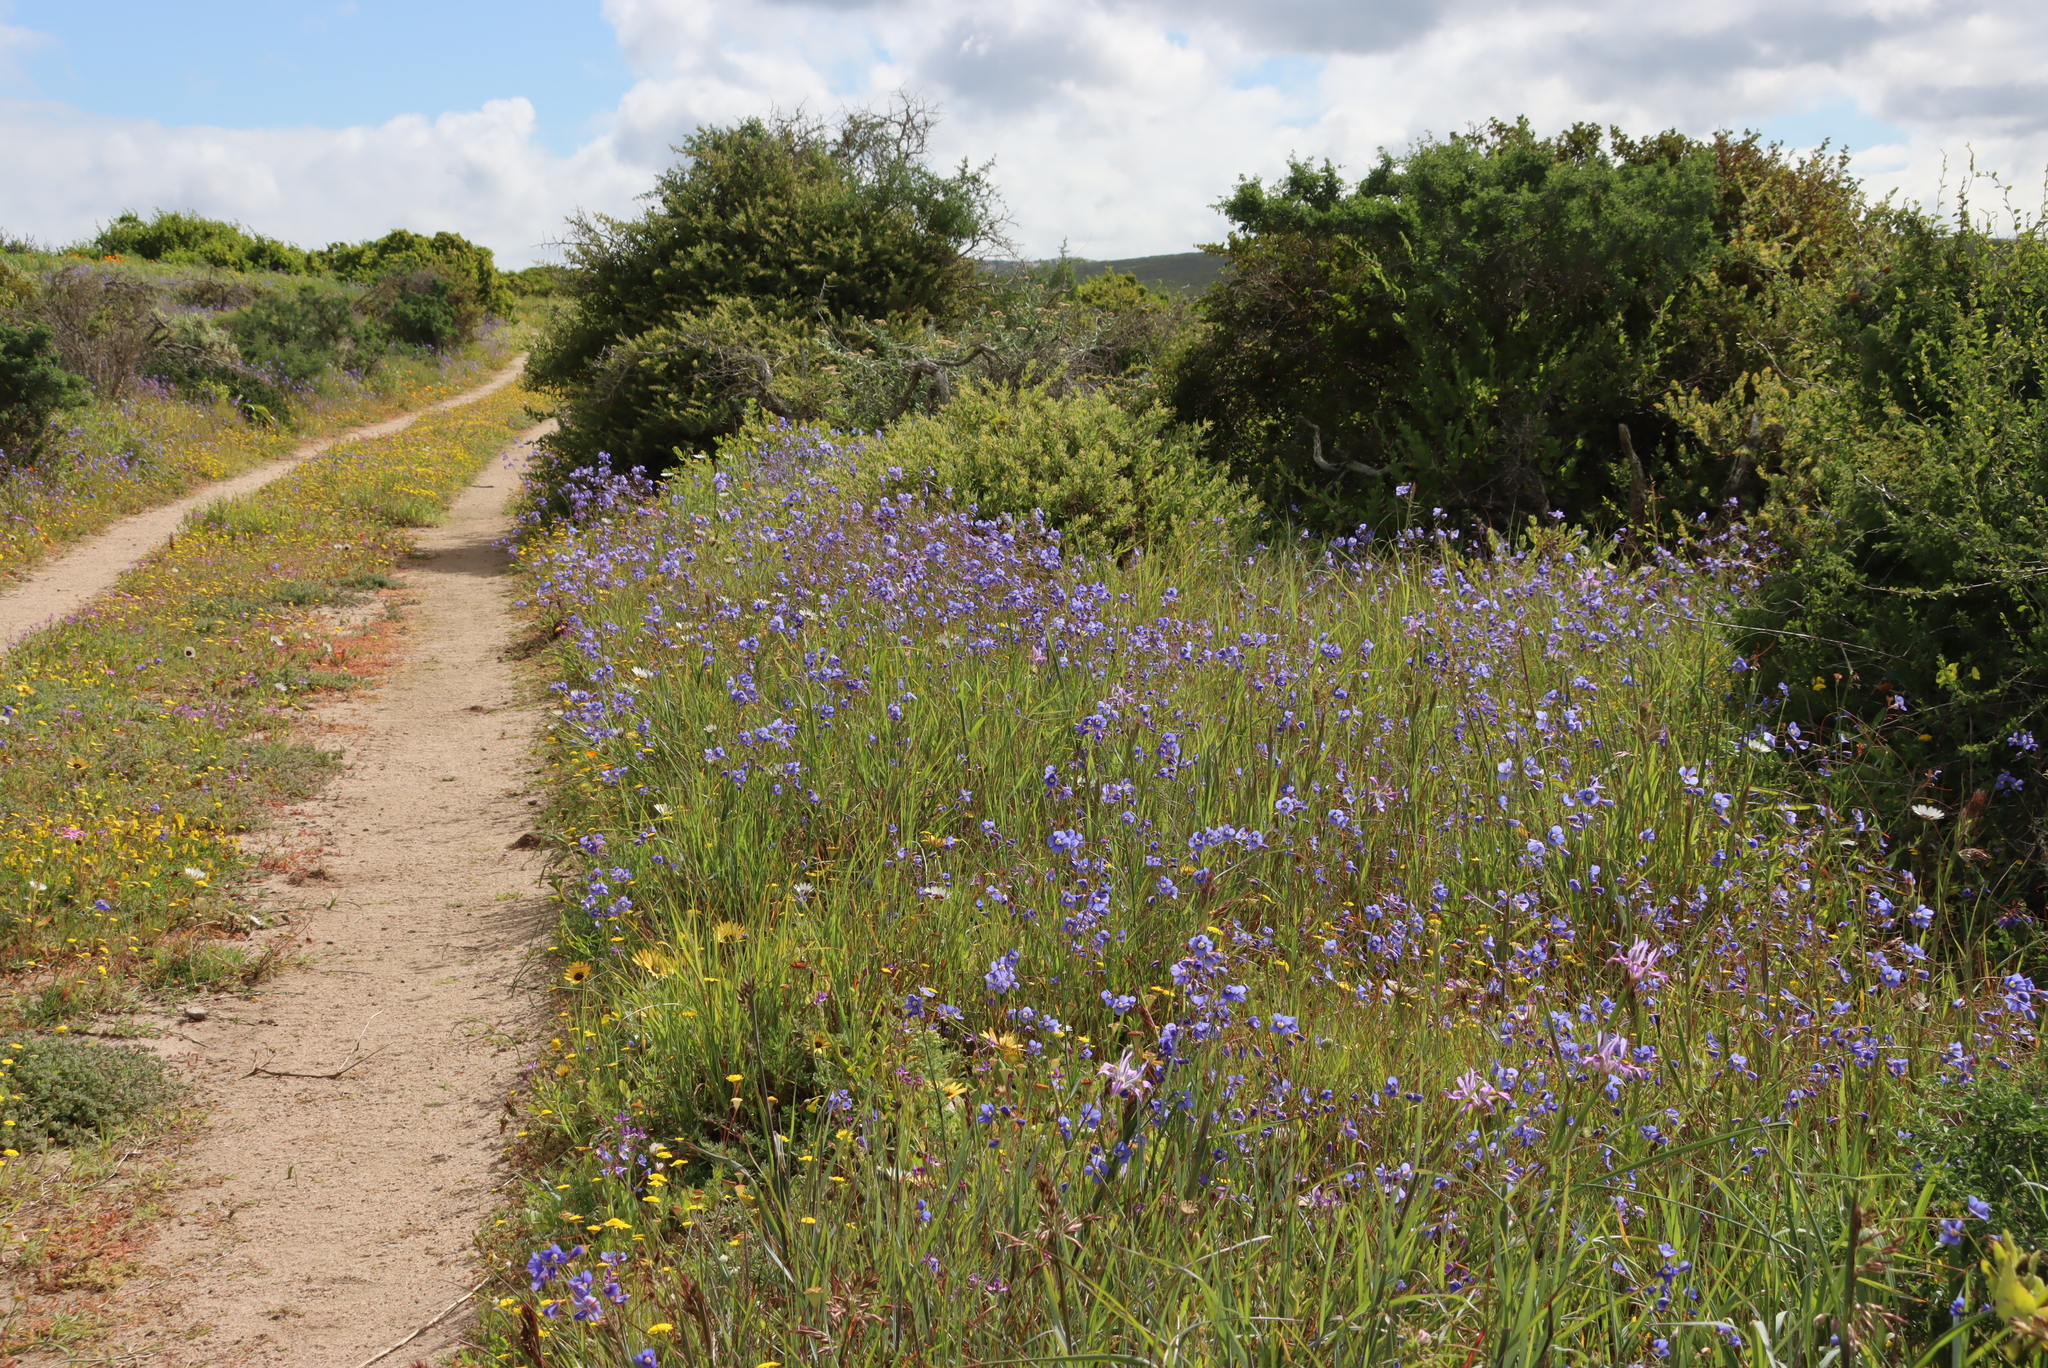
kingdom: Plantae
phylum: Tracheophyta
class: Magnoliopsida
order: Brassicales
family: Brassicaceae
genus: Heliophila
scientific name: Heliophila coronopifolia
